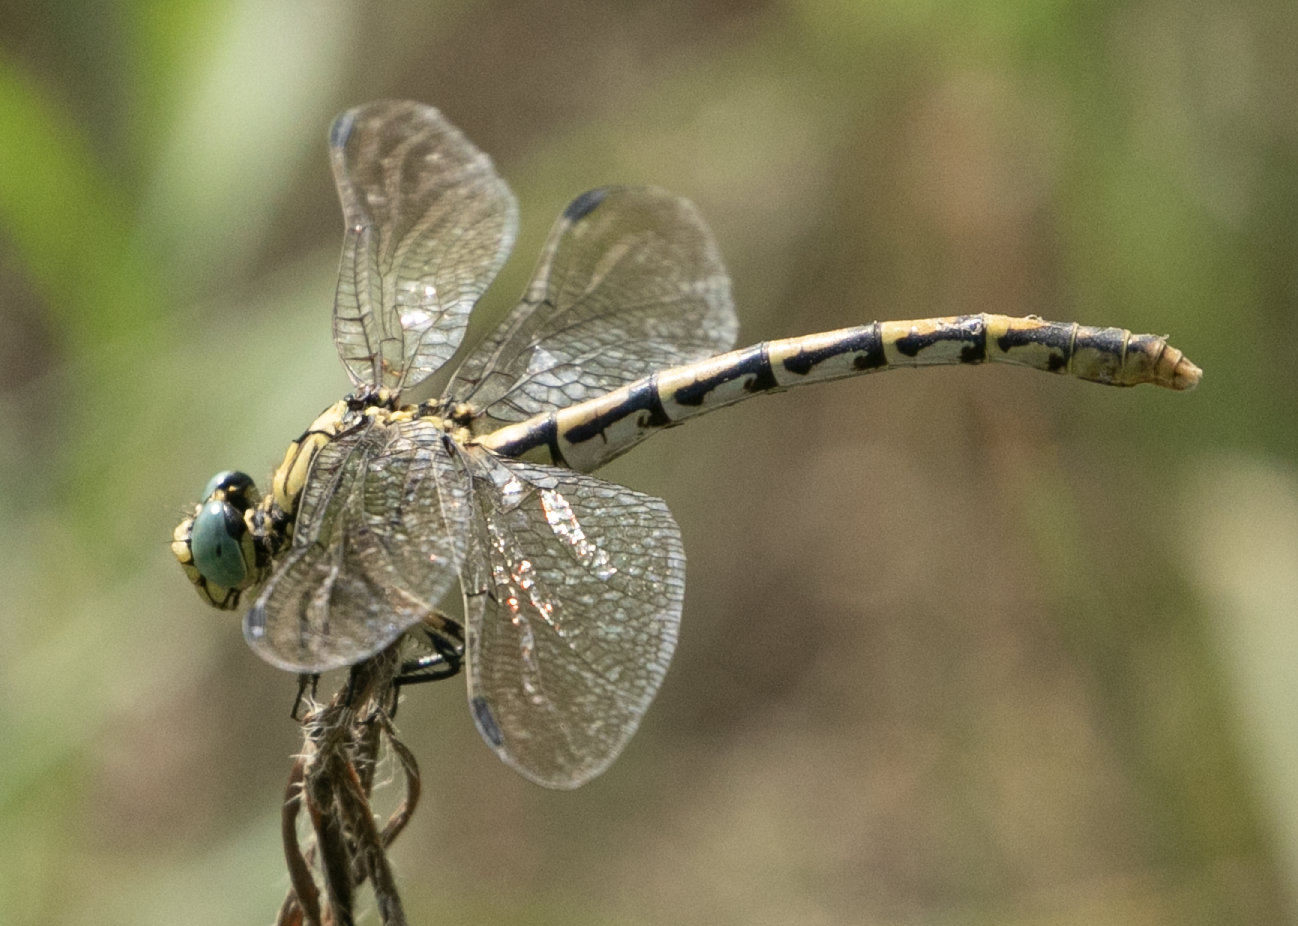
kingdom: Animalia
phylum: Arthropoda
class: Insecta
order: Odonata
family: Gomphidae
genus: Onychogomphus
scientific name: Onychogomphus forcipatus
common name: Small pincertail
